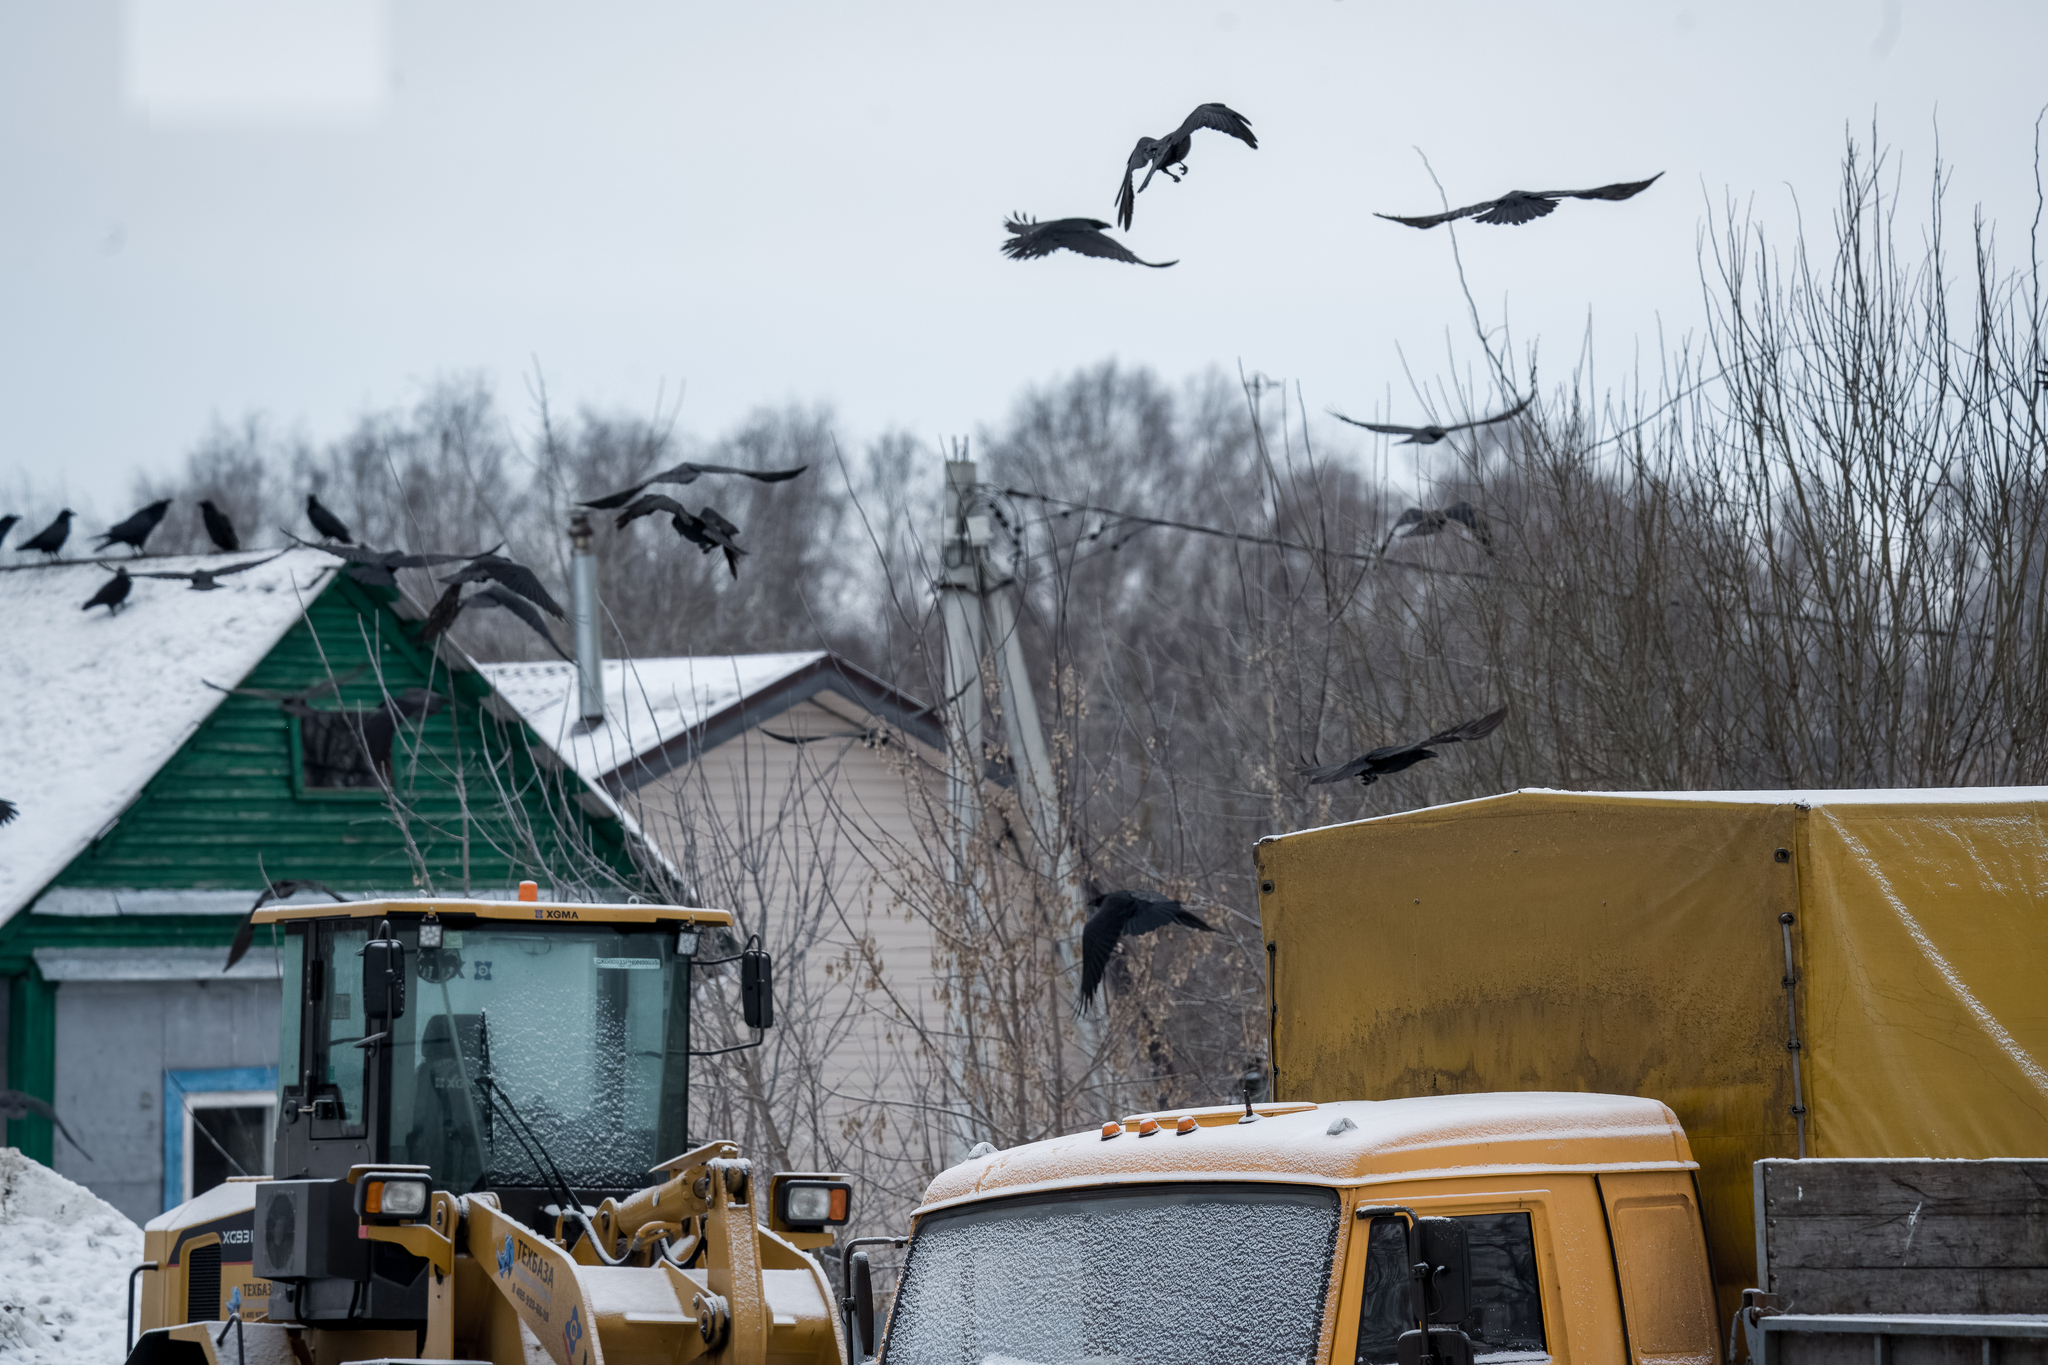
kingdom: Animalia
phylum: Chordata
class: Aves
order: Passeriformes
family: Corvidae
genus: Corvus
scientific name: Corvus corax
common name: Common raven
